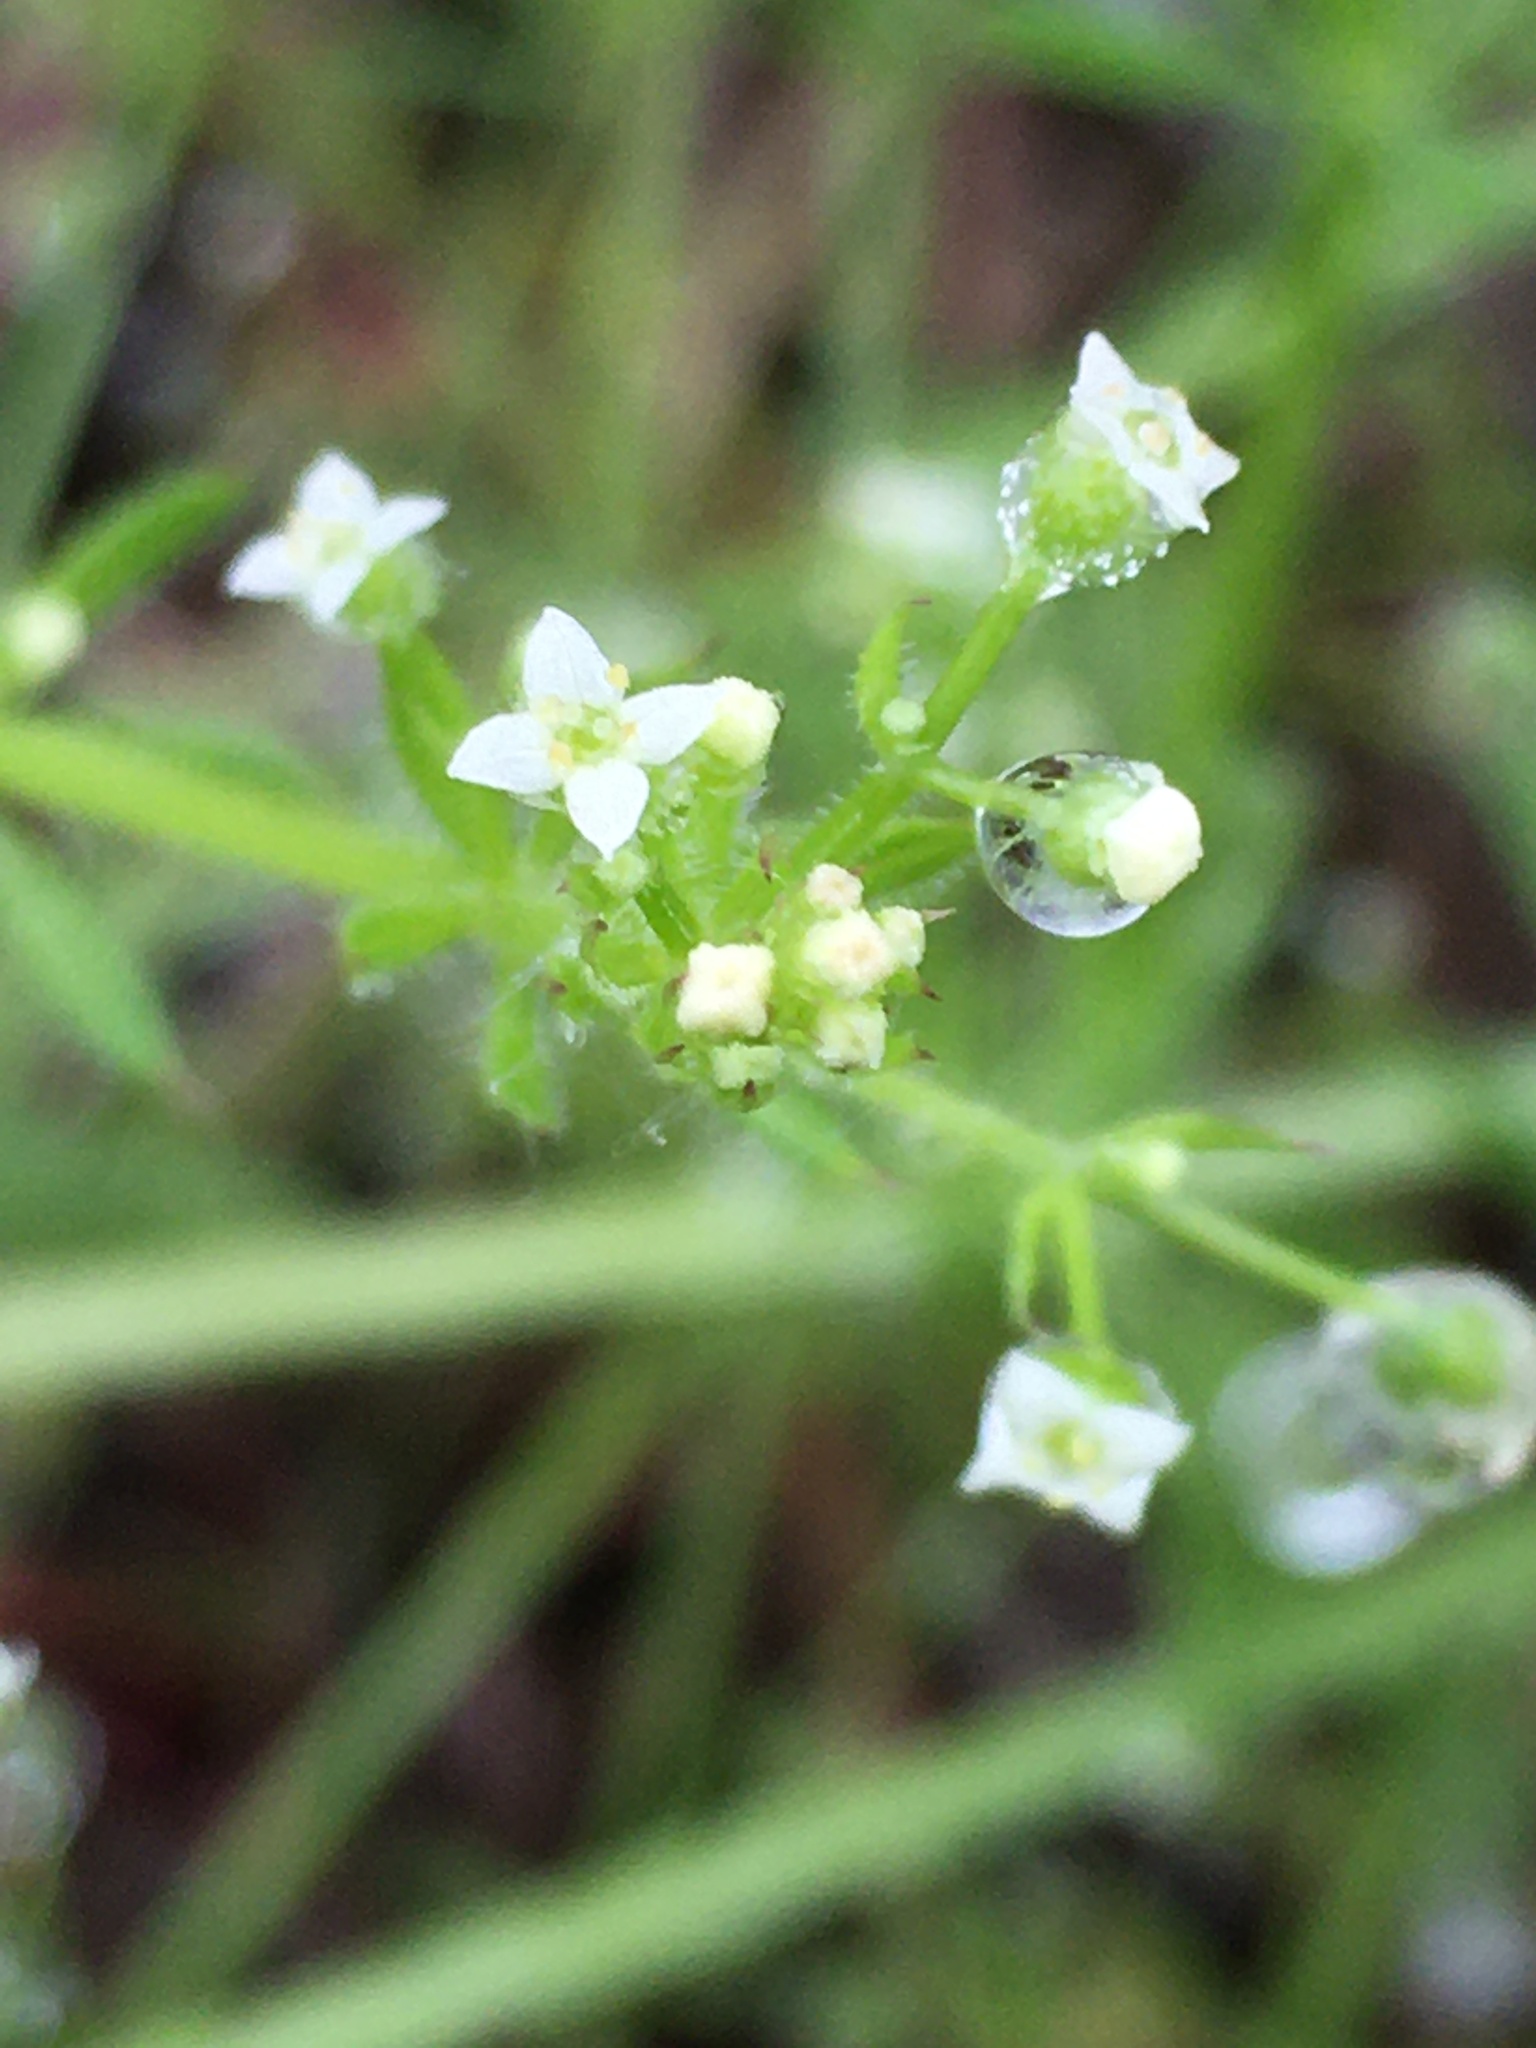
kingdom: Plantae
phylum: Tracheophyta
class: Magnoliopsida
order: Gentianales
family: Rubiaceae
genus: Galium
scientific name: Galium aparine
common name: Cleavers
